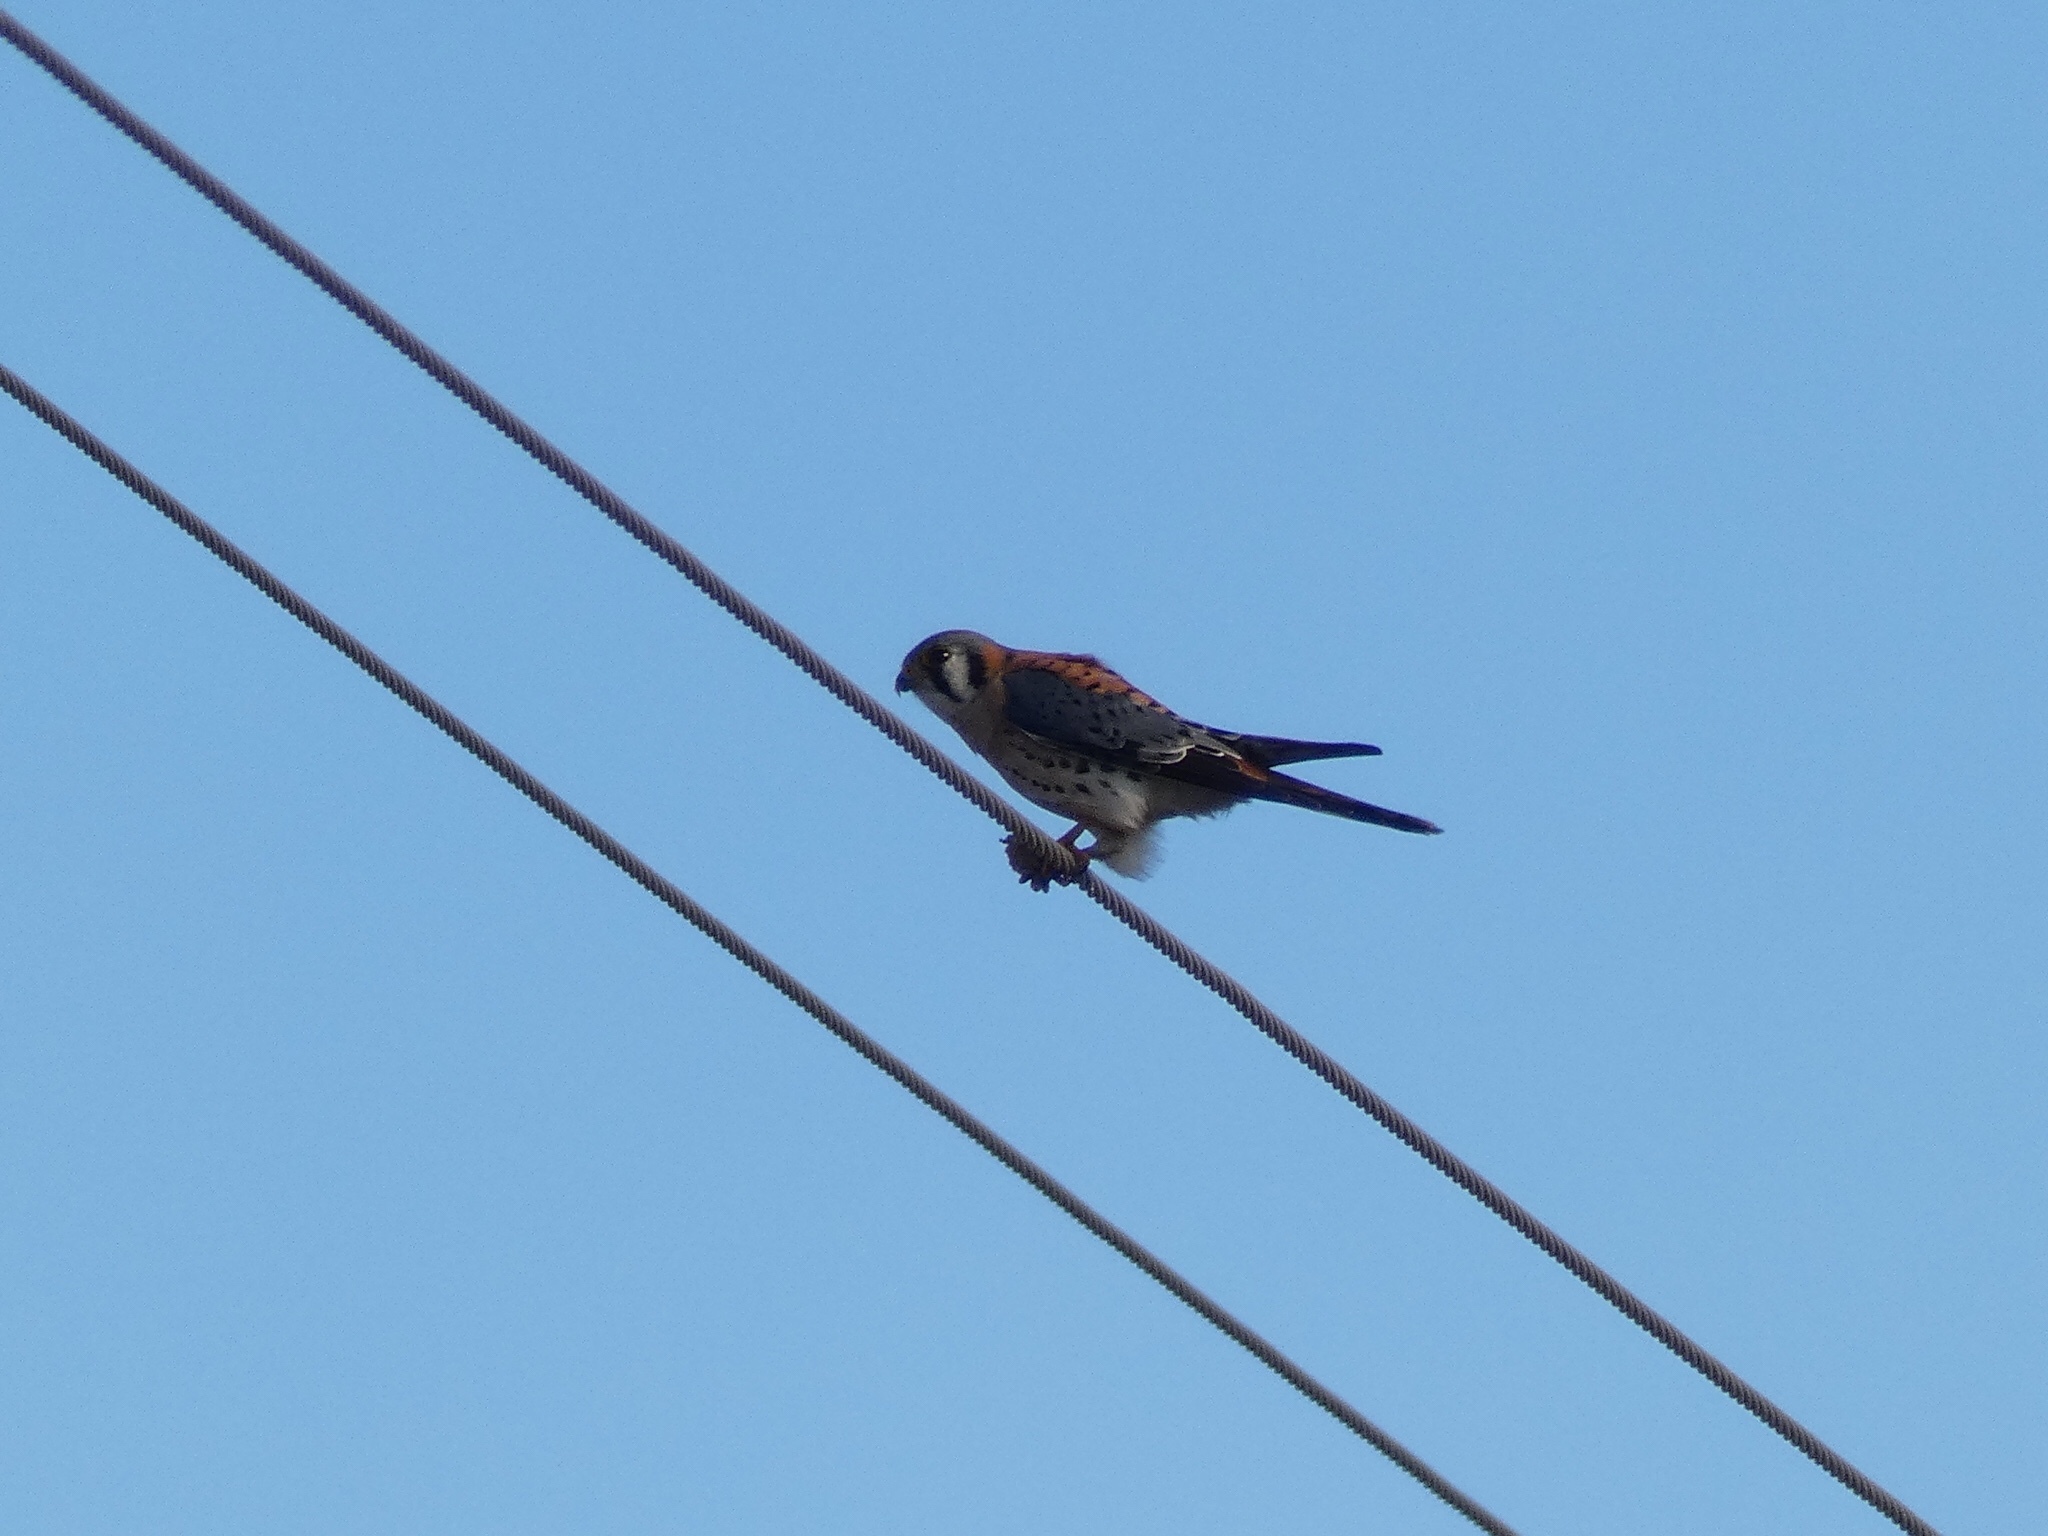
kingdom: Animalia
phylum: Chordata
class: Aves
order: Falconiformes
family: Falconidae
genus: Falco
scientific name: Falco sparverius
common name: American kestrel
